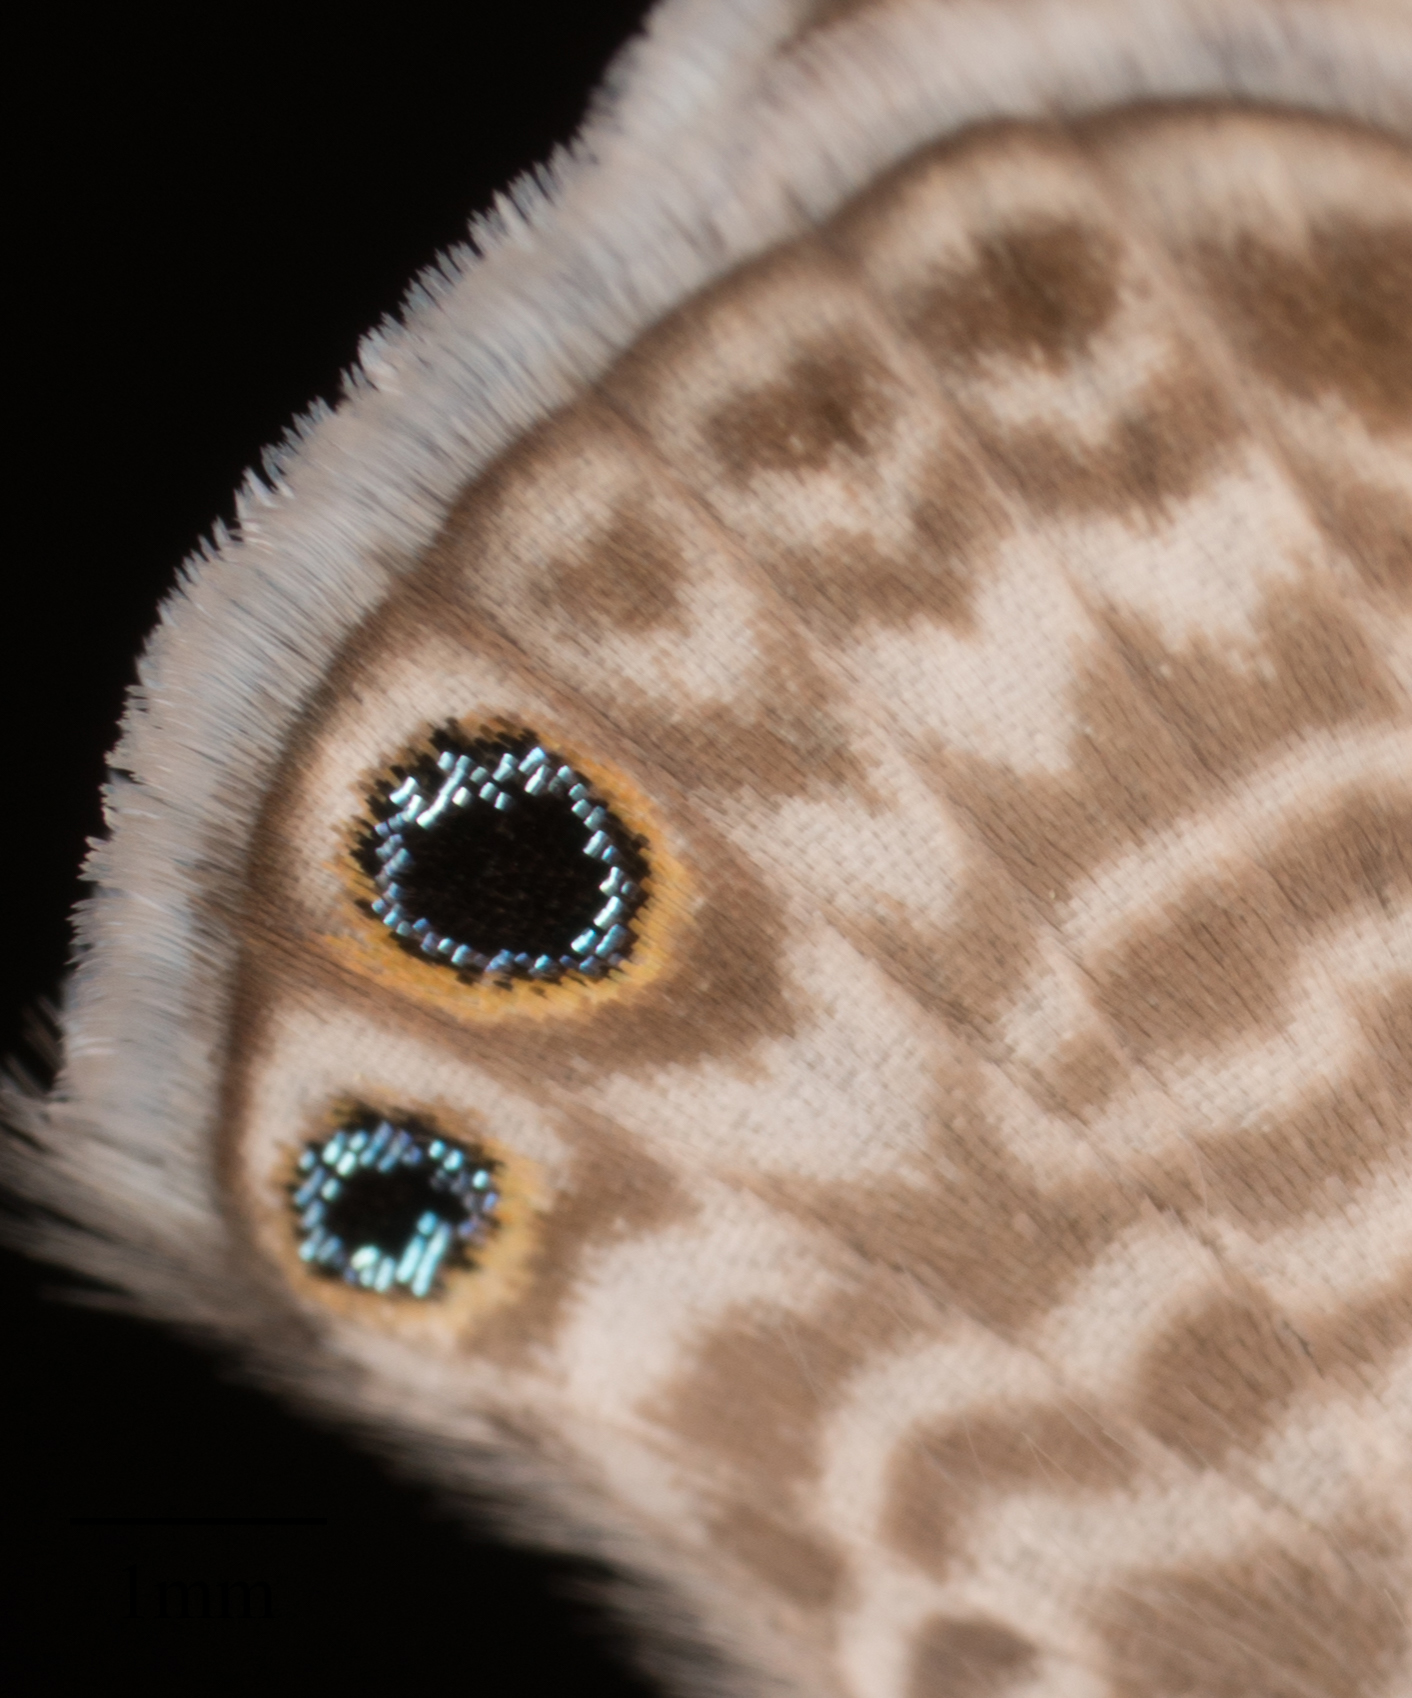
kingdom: Animalia
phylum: Arthropoda
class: Insecta
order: Lepidoptera
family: Lycaenidae
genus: Leptotes
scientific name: Leptotes marina
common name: Marine blue
